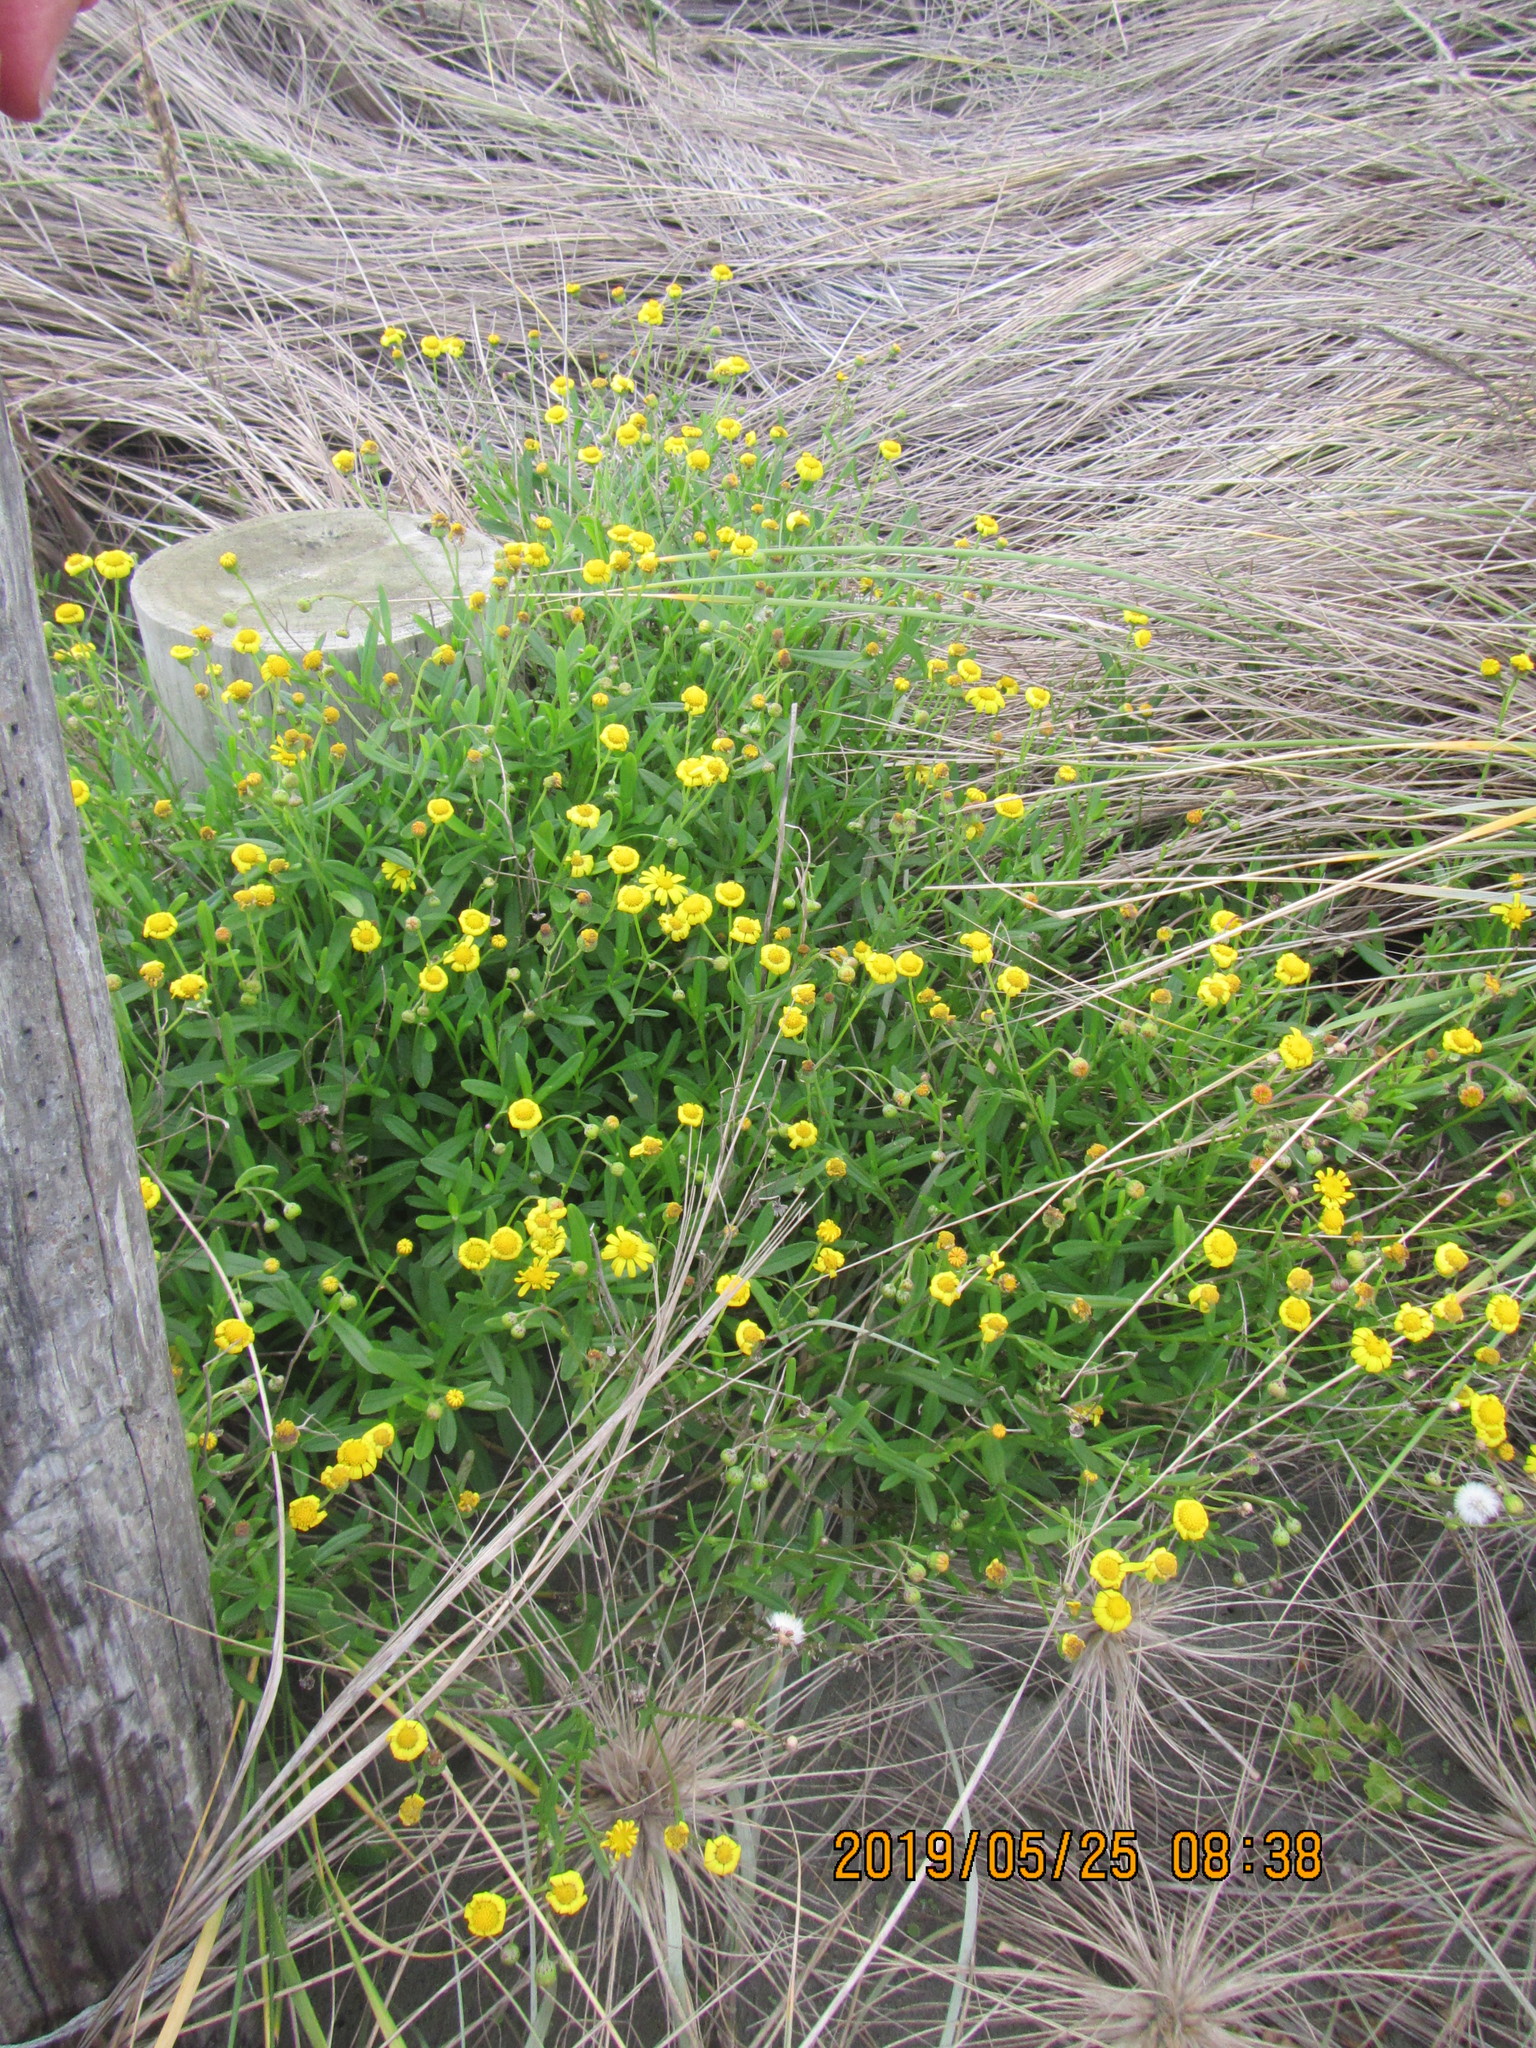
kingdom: Plantae
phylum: Tracheophyta
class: Magnoliopsida
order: Asterales
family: Asteraceae
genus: Senecio
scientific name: Senecio skirrhodon
